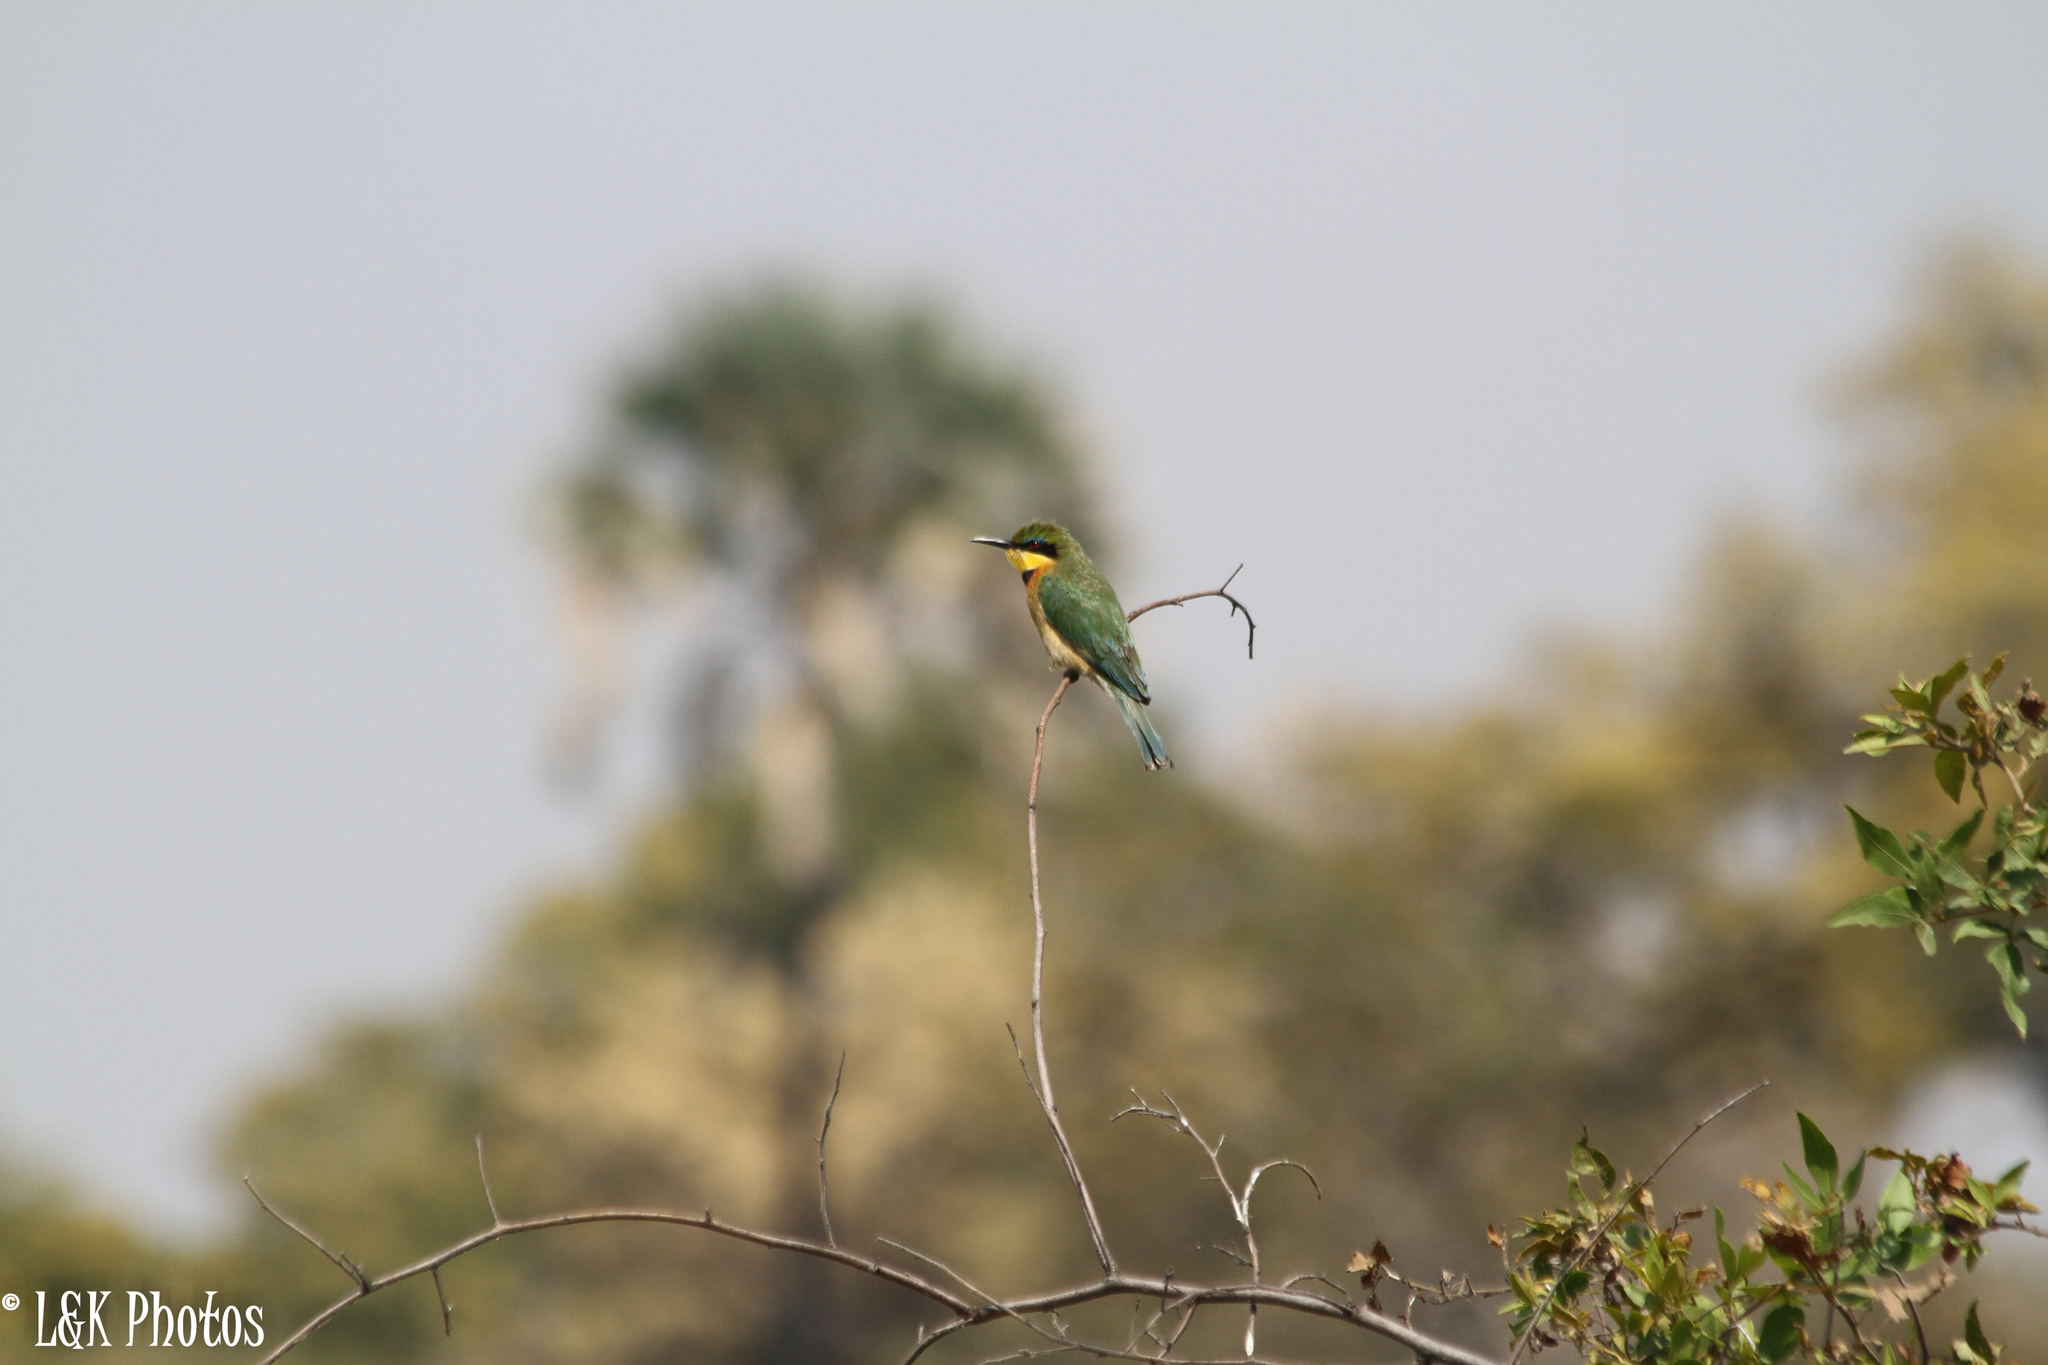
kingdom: Animalia
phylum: Chordata
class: Aves
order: Coraciiformes
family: Meropidae
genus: Merops
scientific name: Merops pusillus
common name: Little bee-eater
